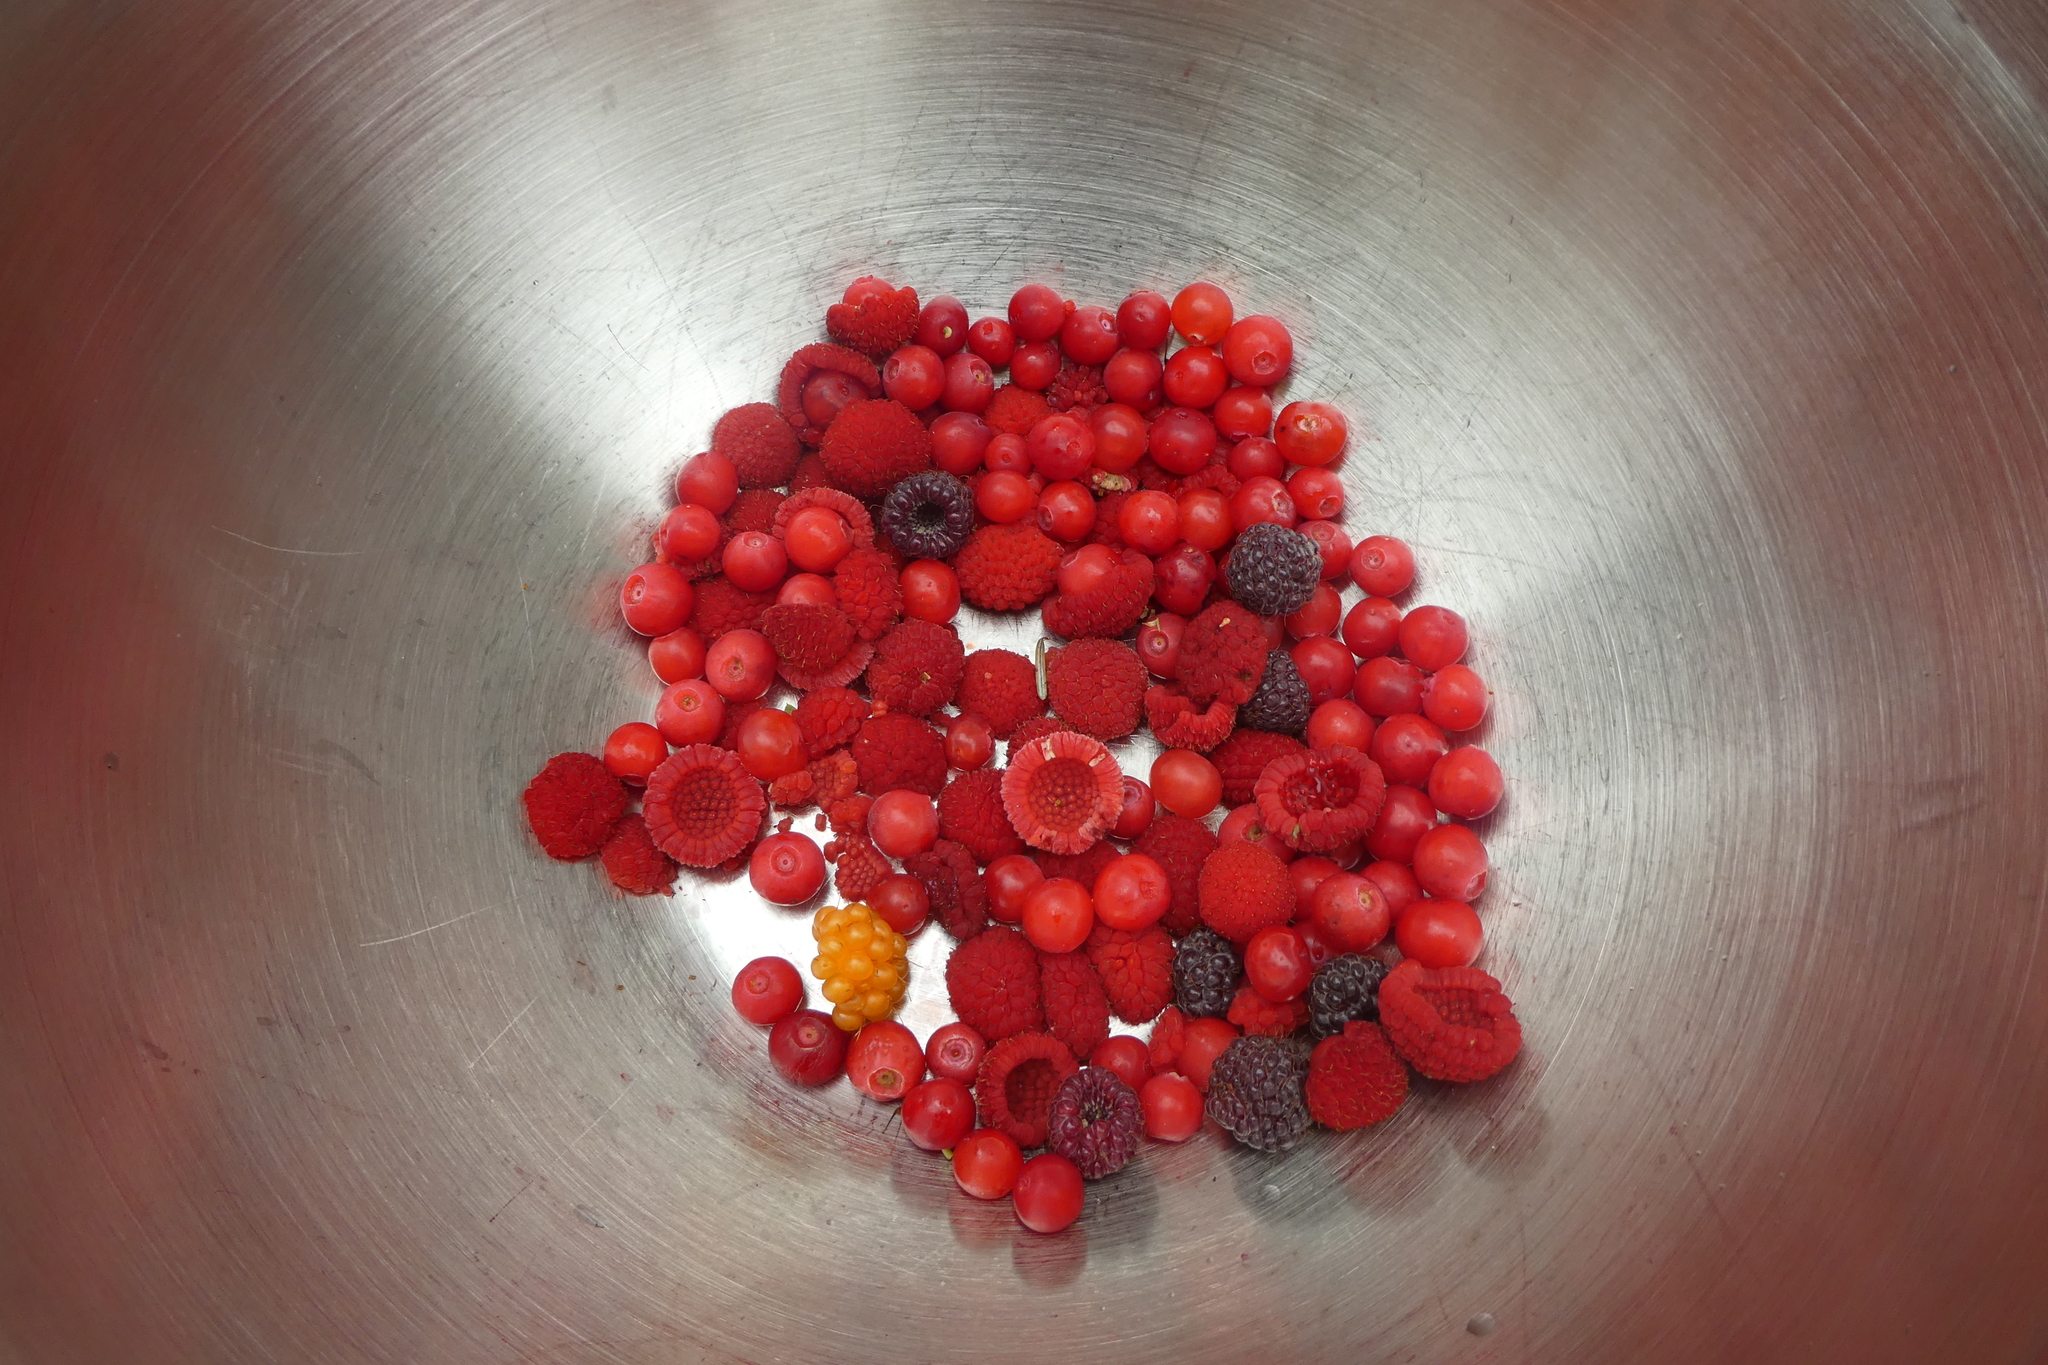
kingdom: Plantae
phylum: Tracheophyta
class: Magnoliopsida
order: Rosales
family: Rosaceae
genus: Rubus
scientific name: Rubus parviflorus
